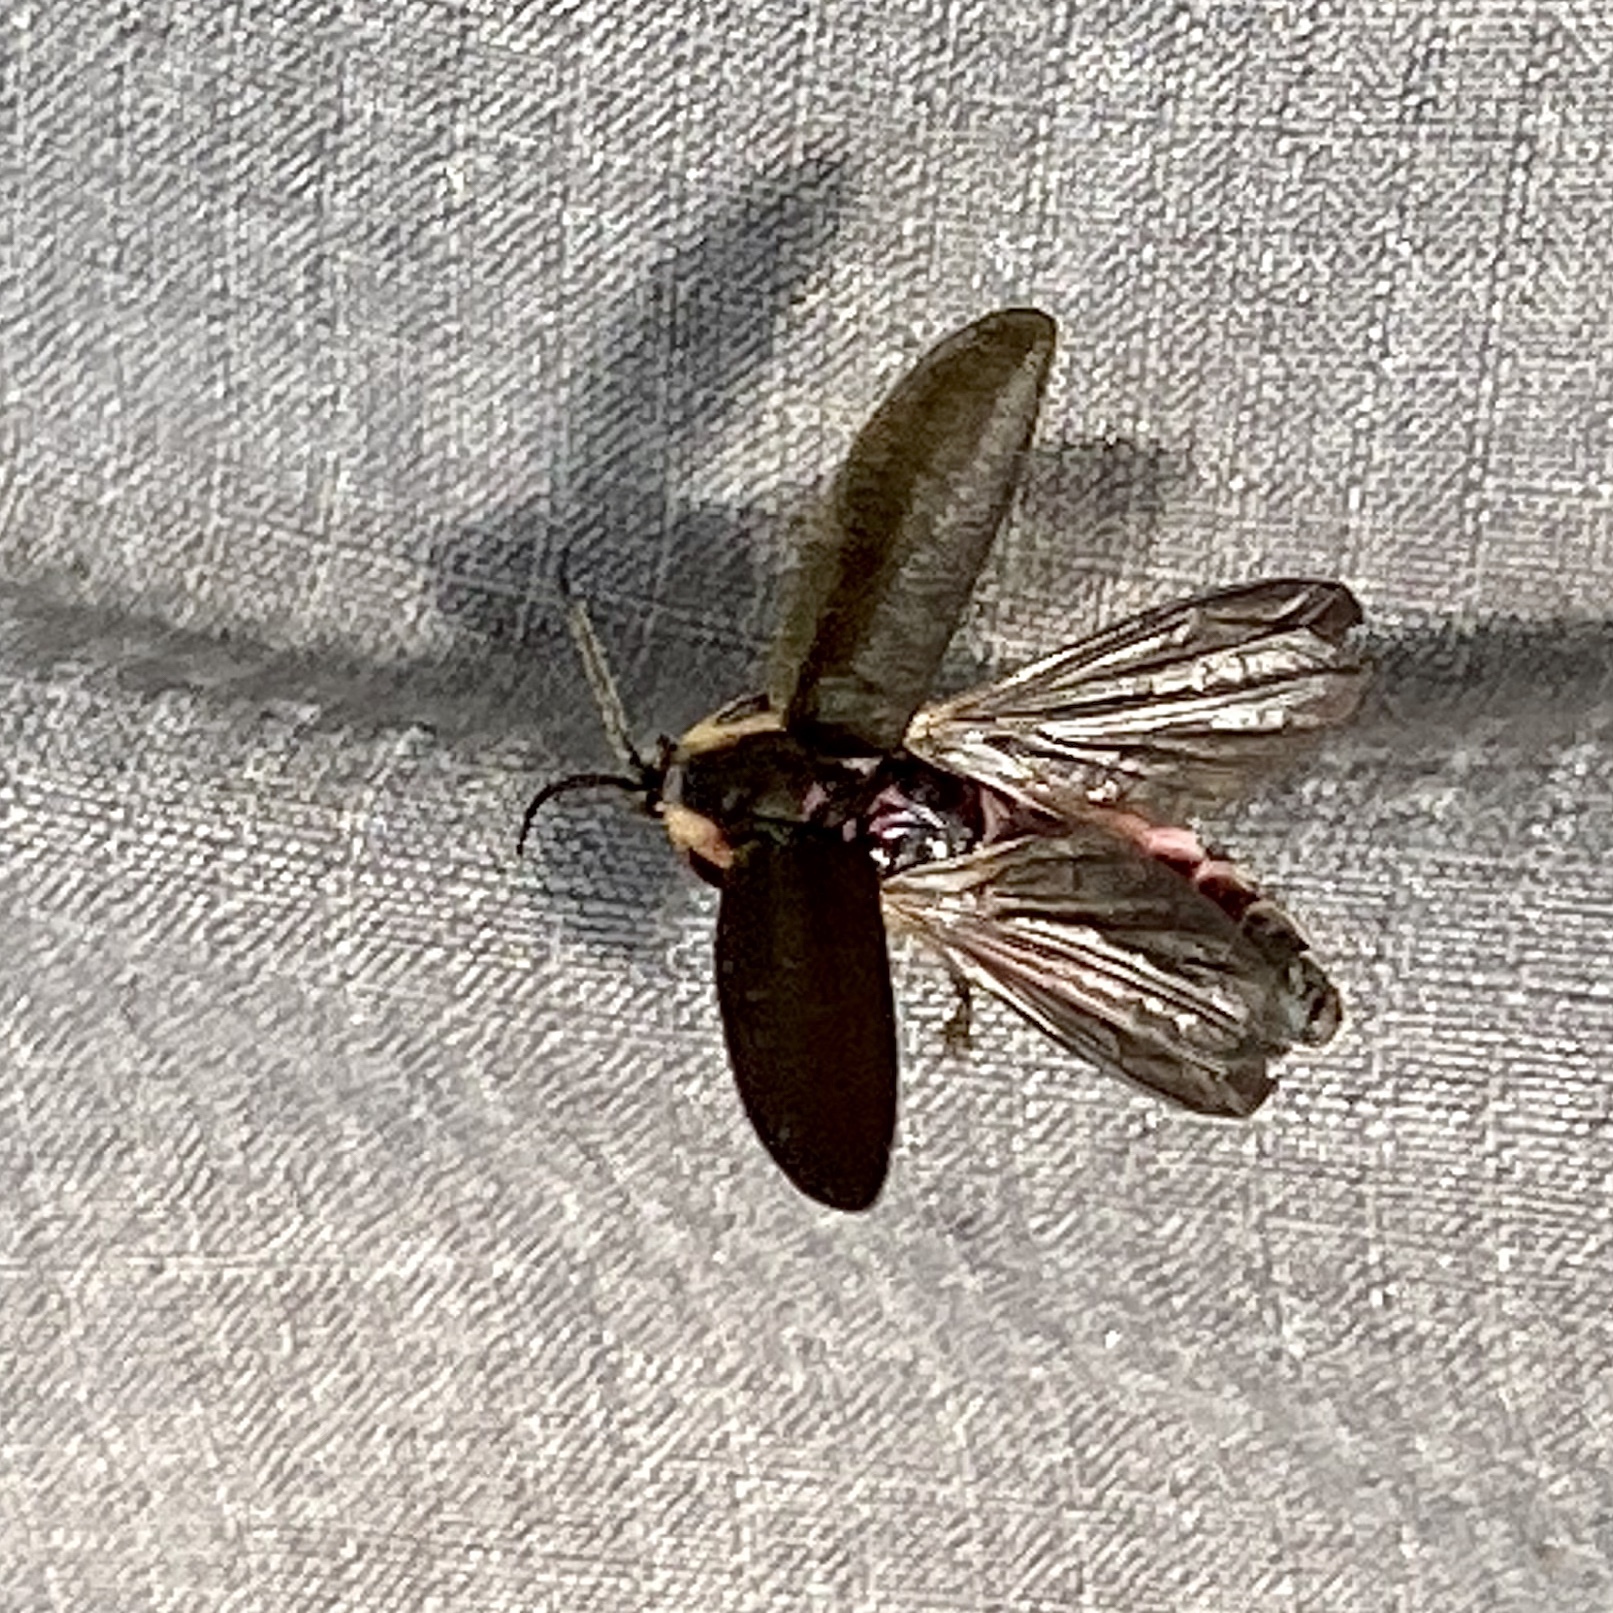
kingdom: Animalia
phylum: Arthropoda
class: Insecta
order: Coleoptera
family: Lampyridae
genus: Photinus
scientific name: Photinus corrusca
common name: Winter firefly
